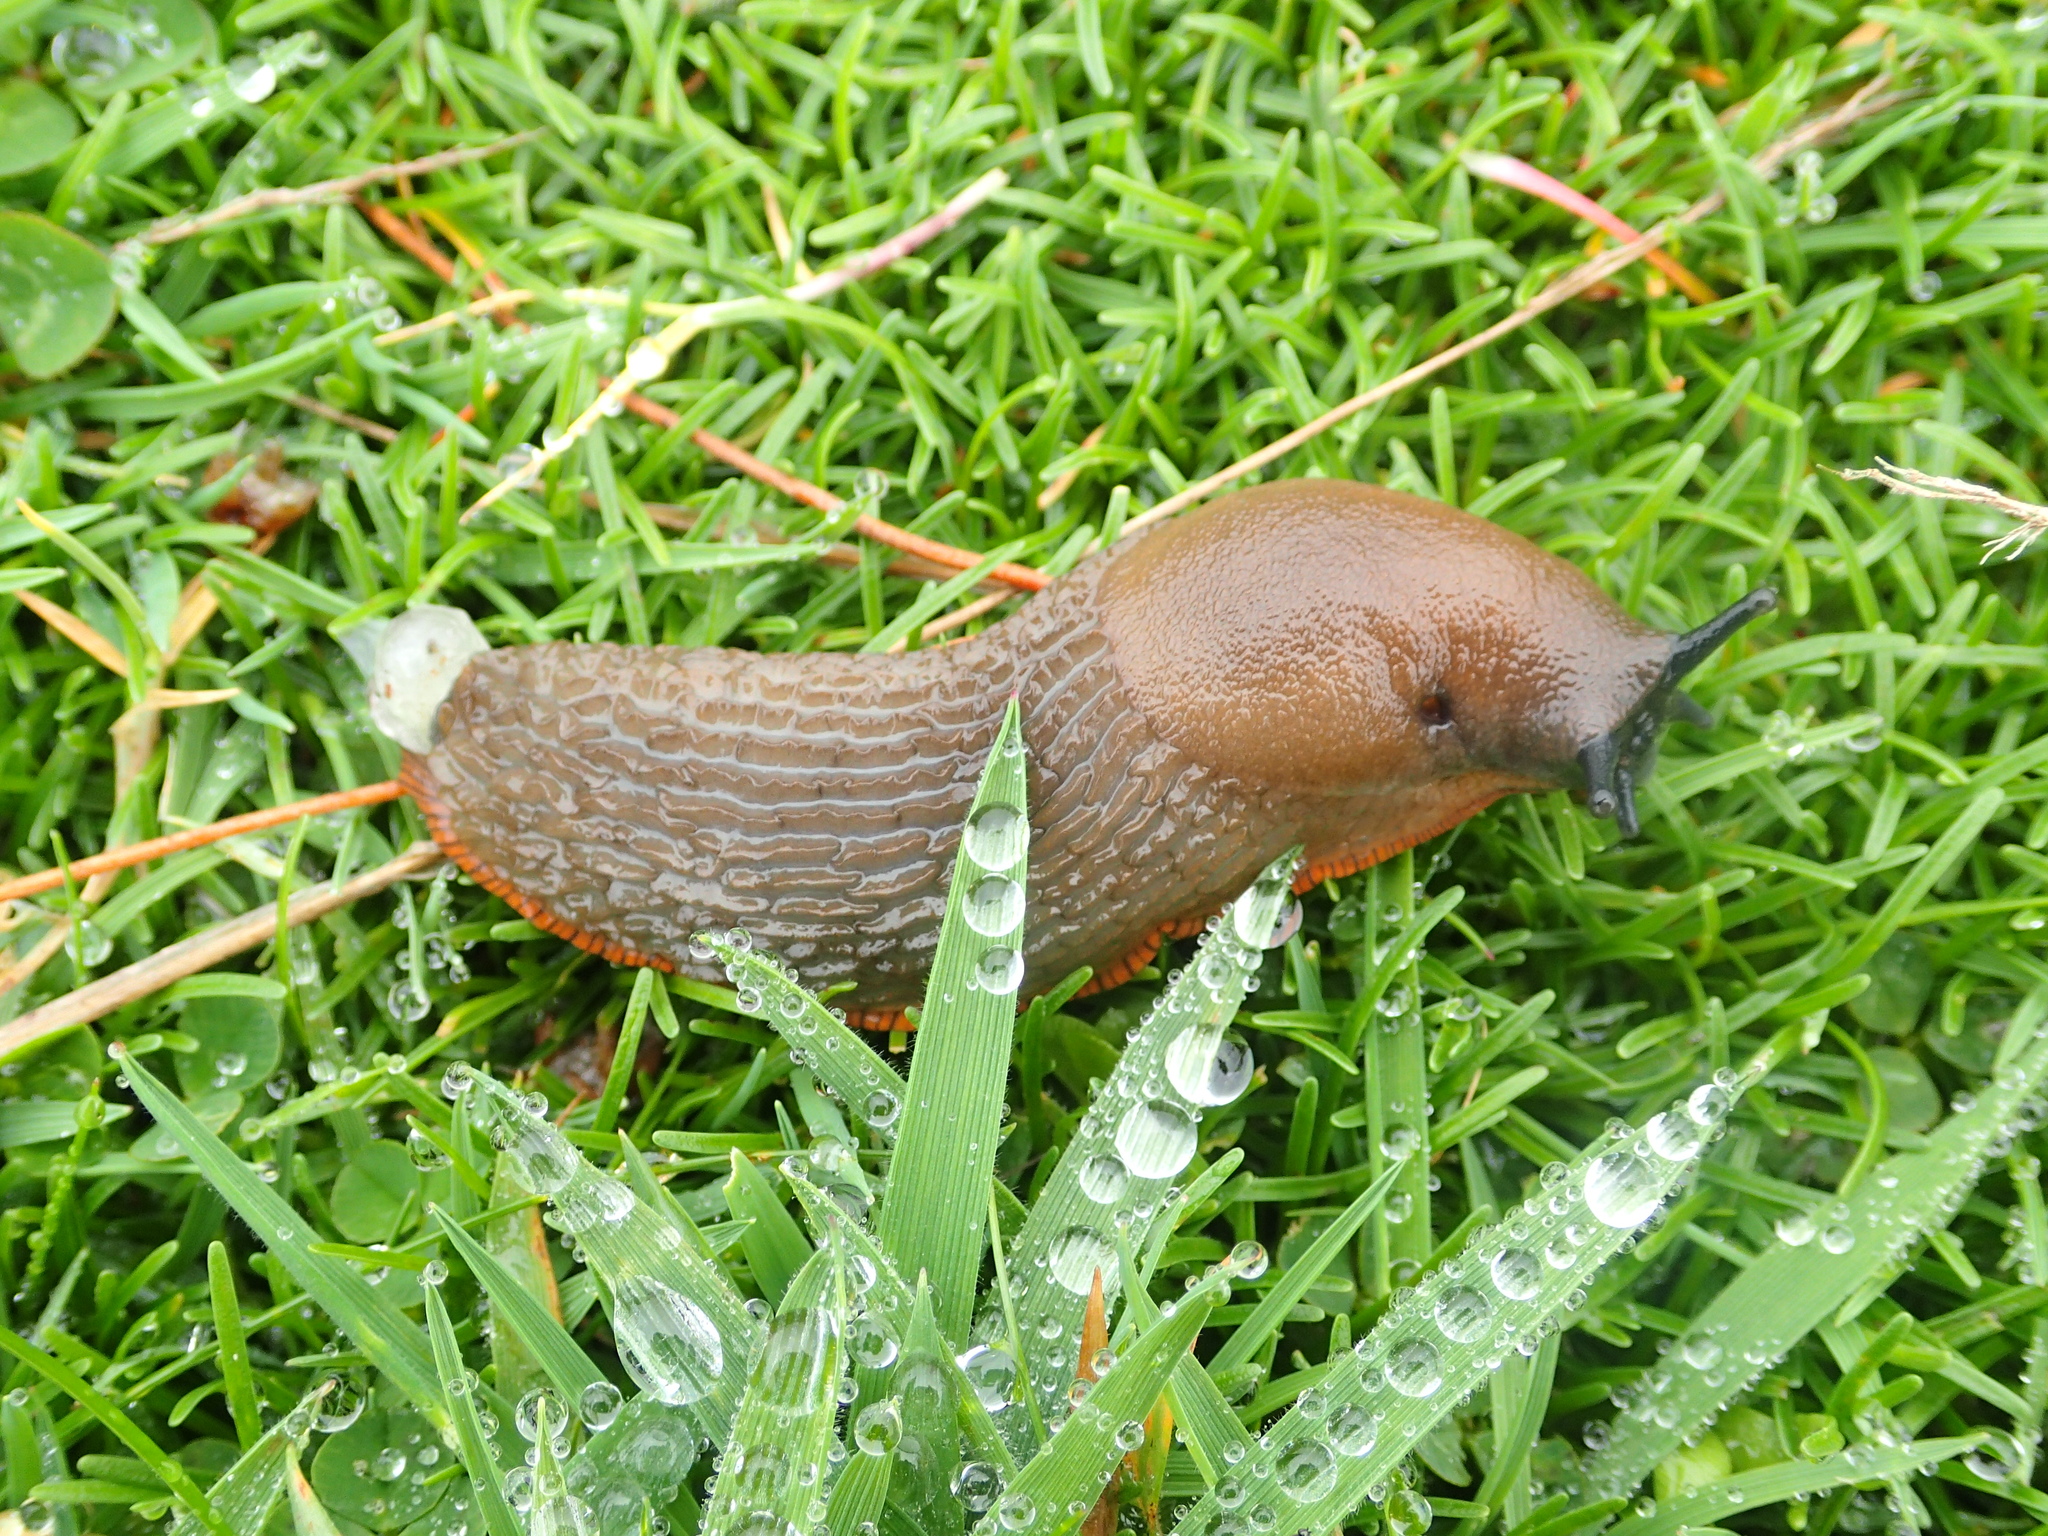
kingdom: Animalia
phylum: Mollusca
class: Gastropoda
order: Stylommatophora
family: Arionidae
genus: Arion
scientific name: Arion rufus
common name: Chocolate arion
